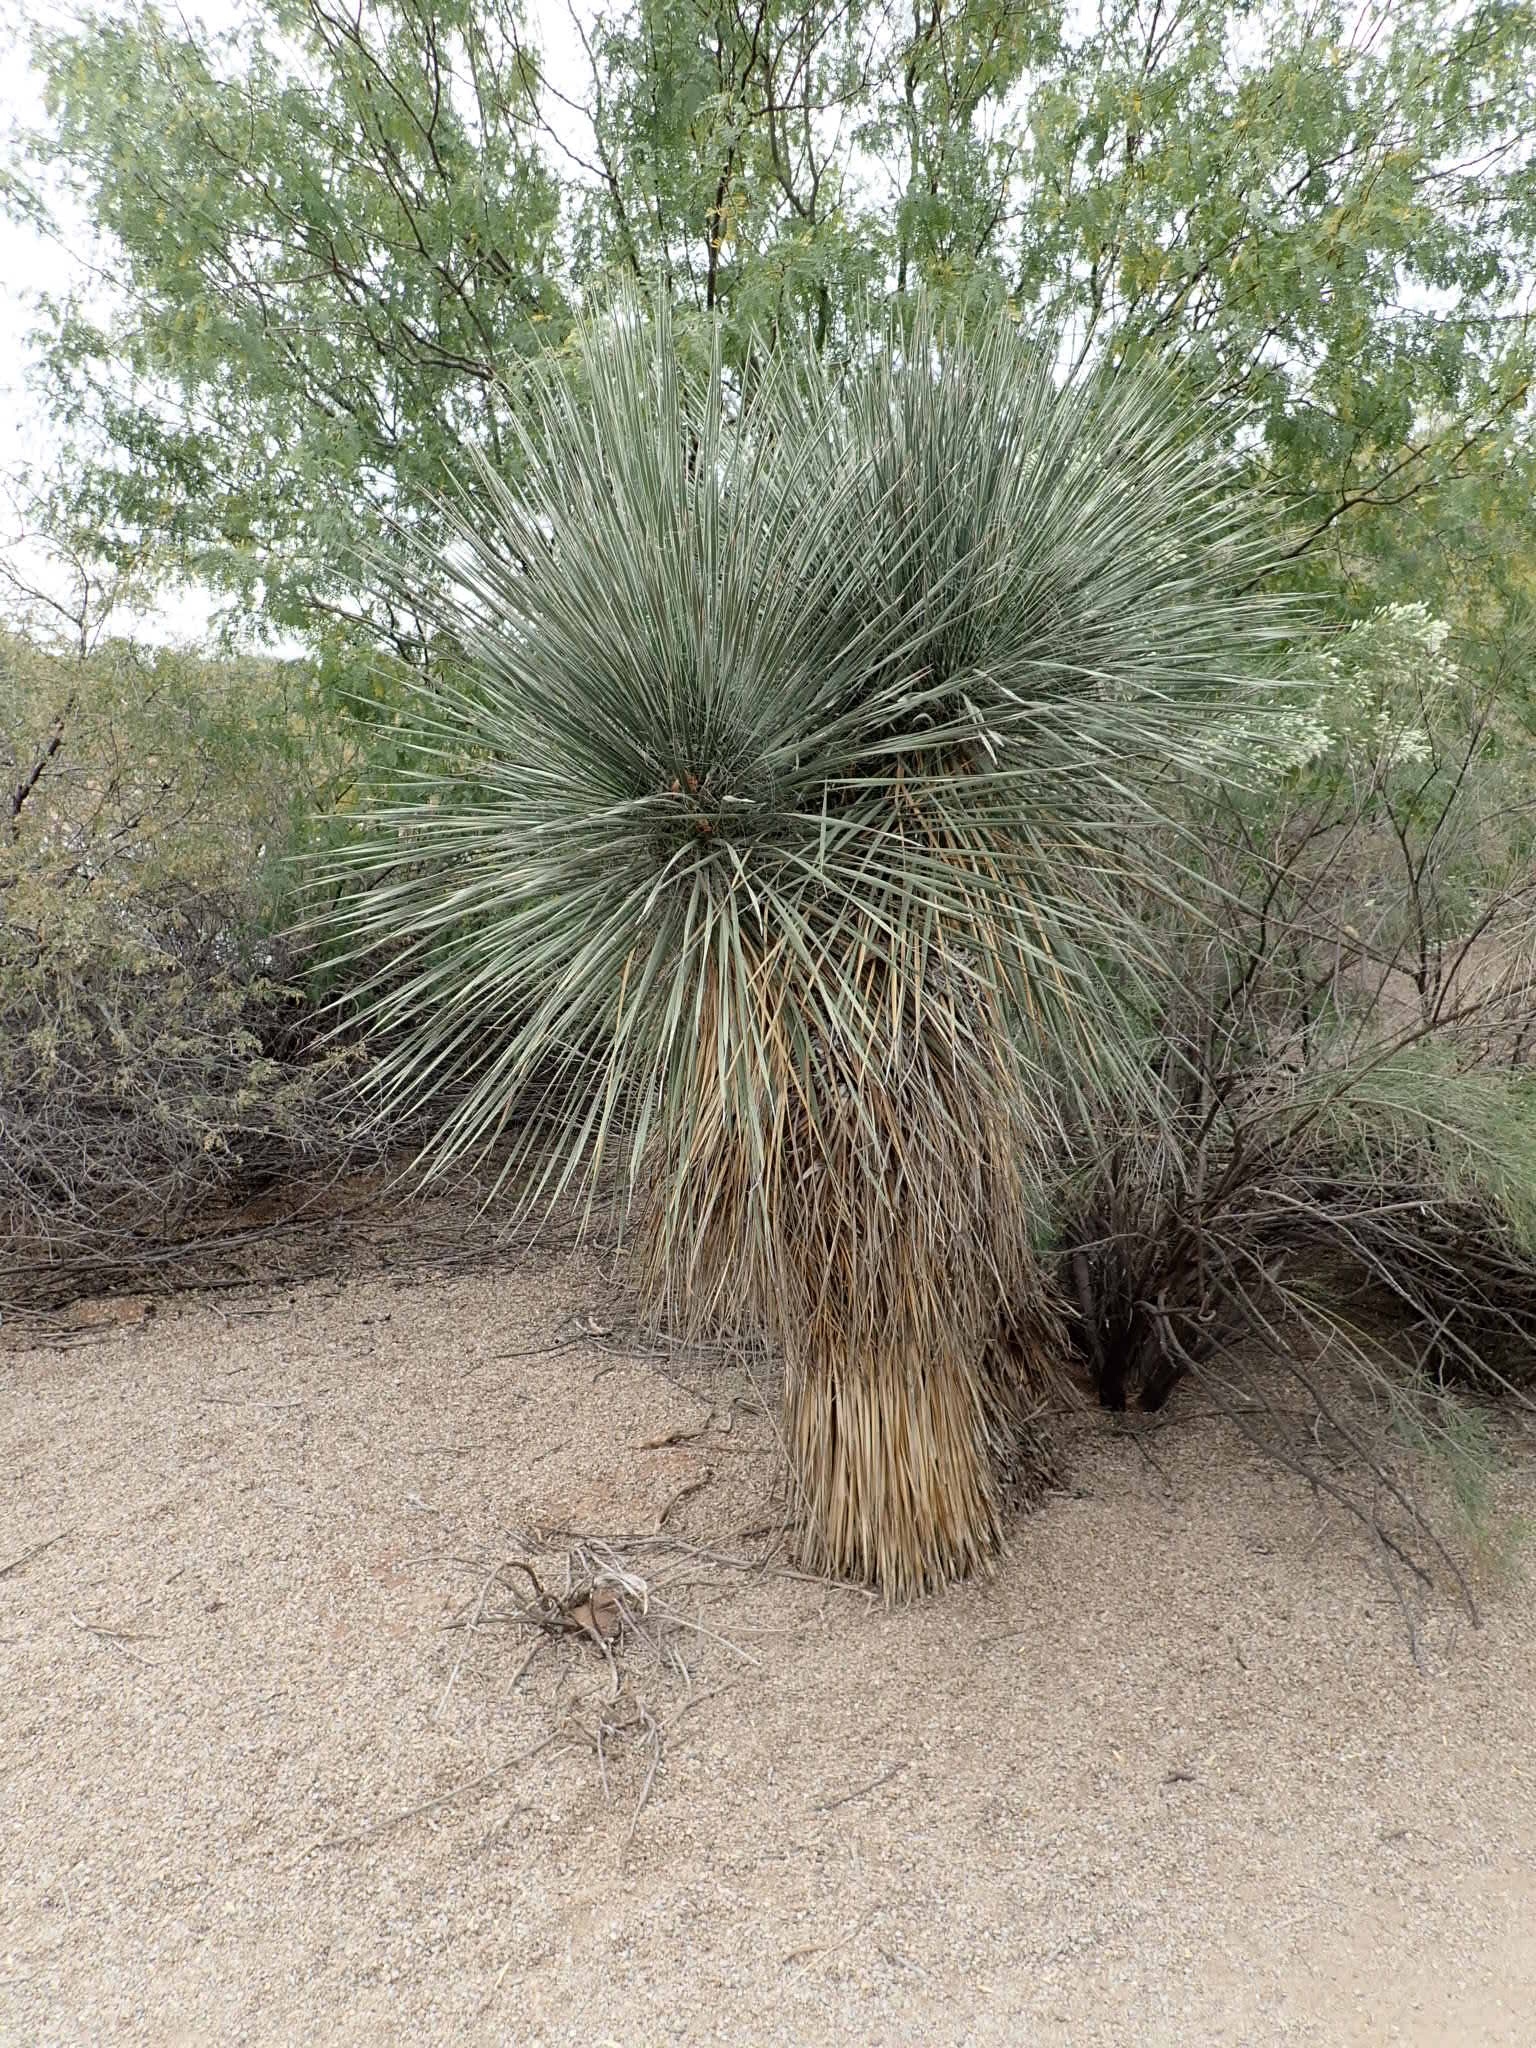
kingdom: Plantae
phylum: Tracheophyta
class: Liliopsida
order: Asparagales
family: Asparagaceae
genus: Yucca
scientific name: Yucca elata
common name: Palmella
